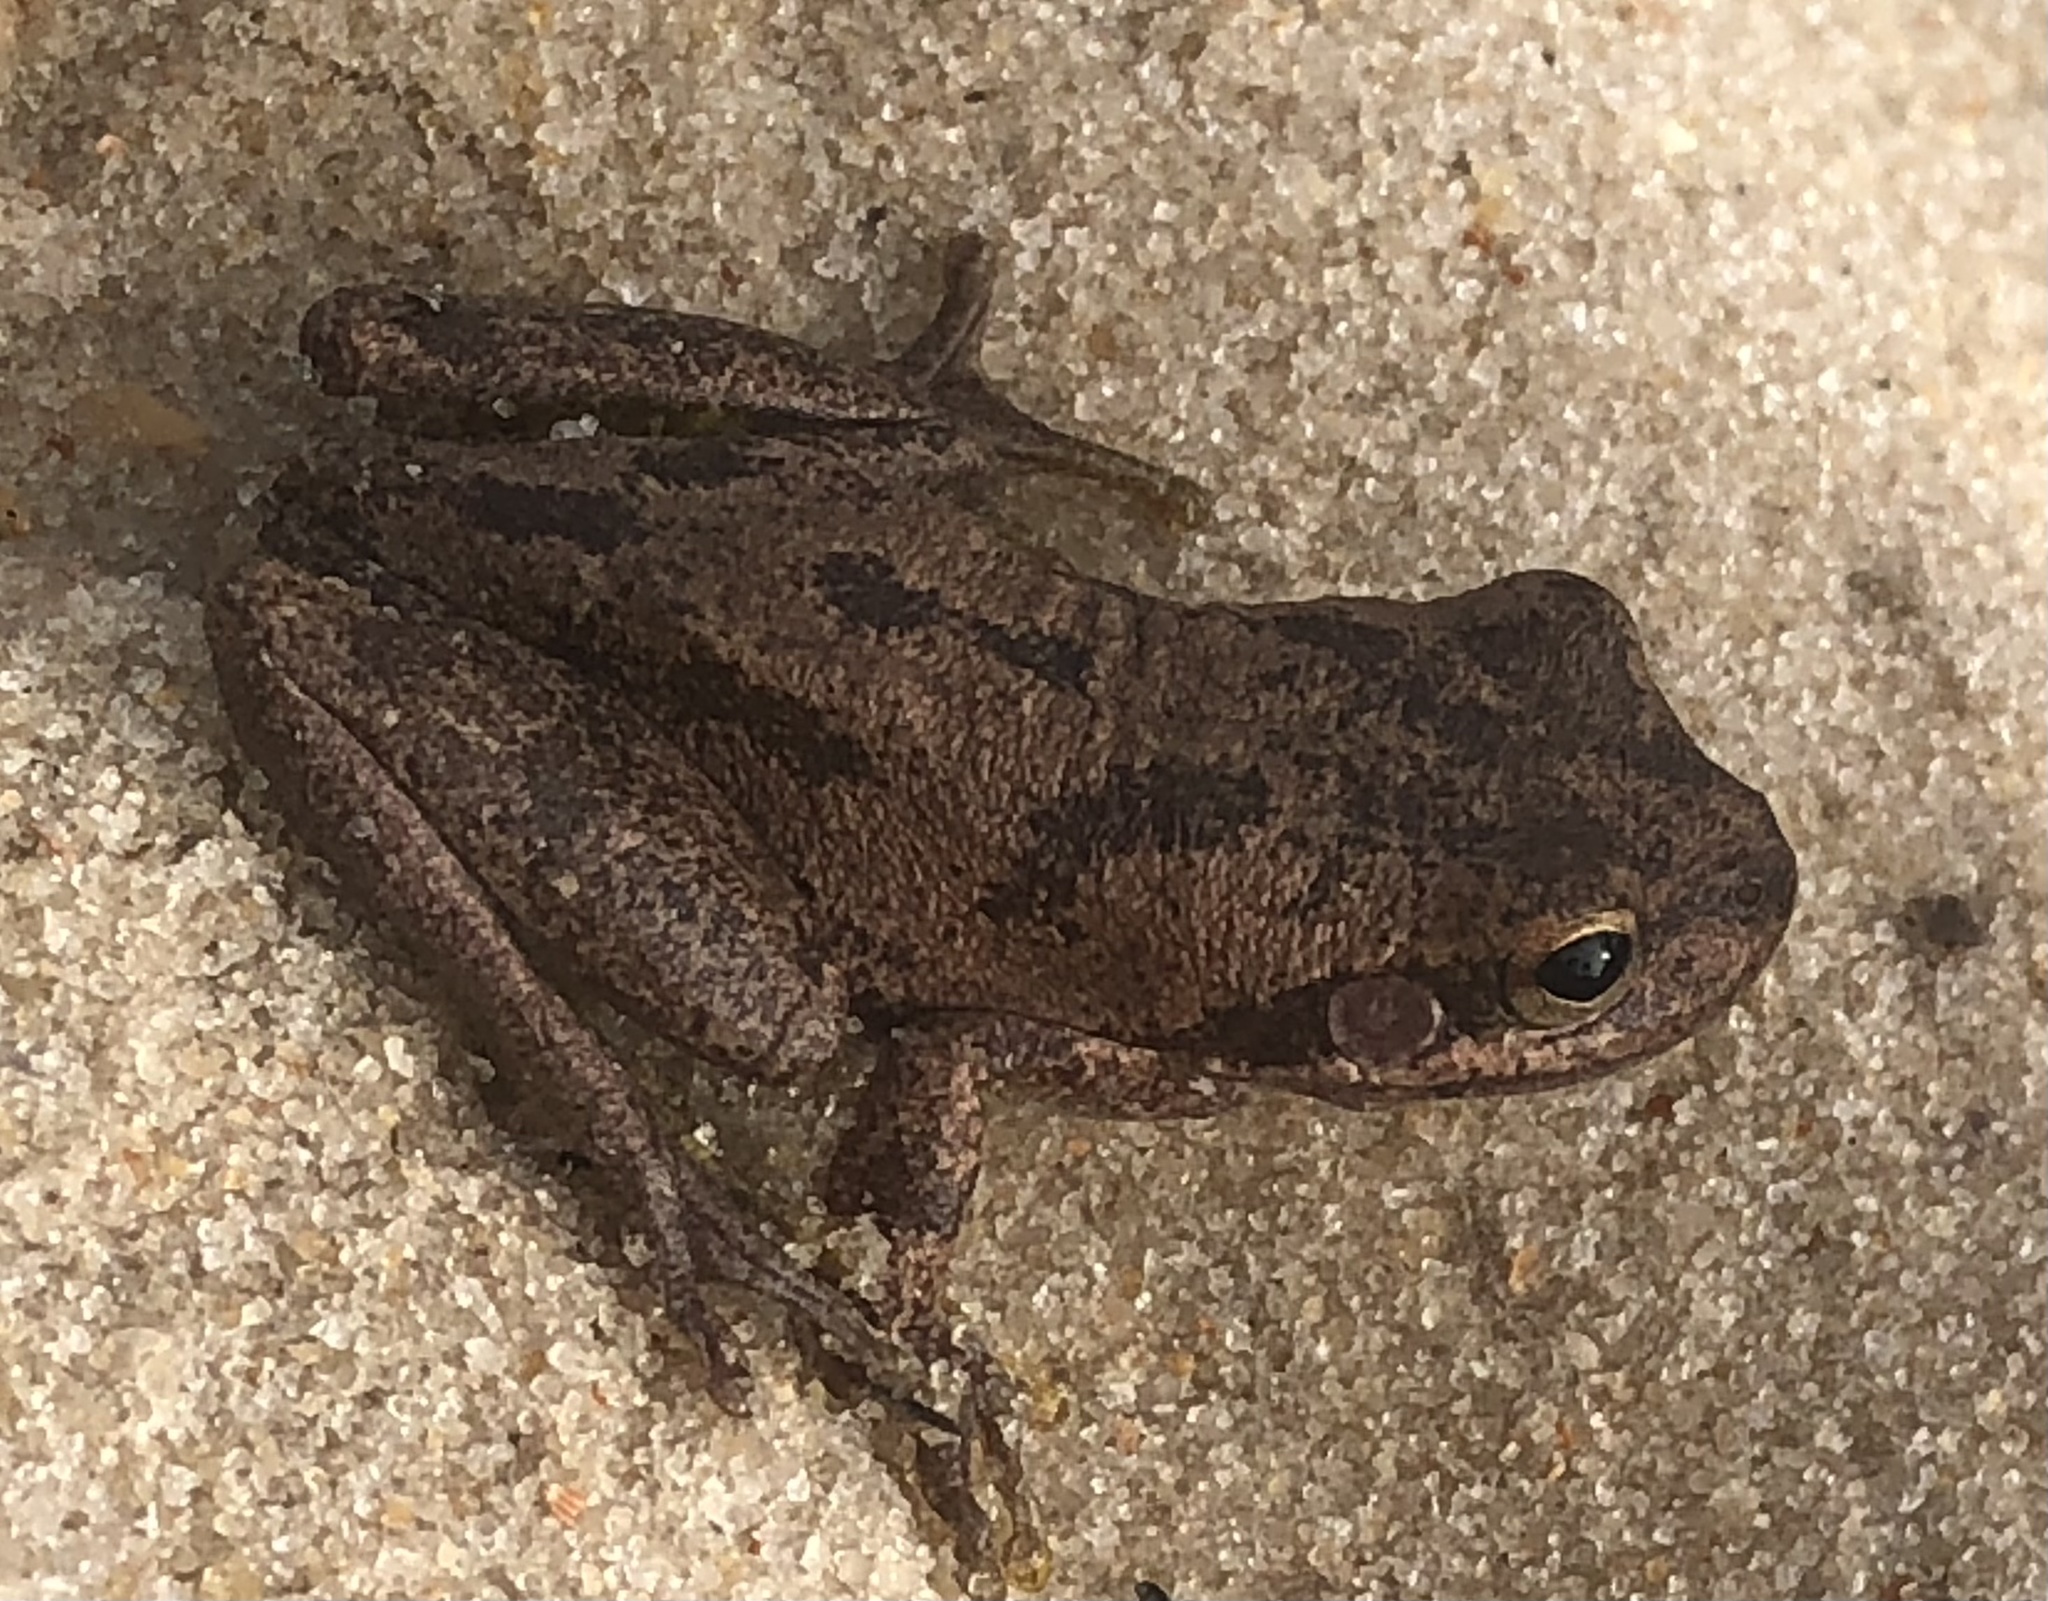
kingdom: Animalia
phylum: Chordata
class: Amphibia
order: Anura
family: Hylidae
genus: Dryophytes
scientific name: Dryophytes squirellus
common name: Squirrel treefrog
